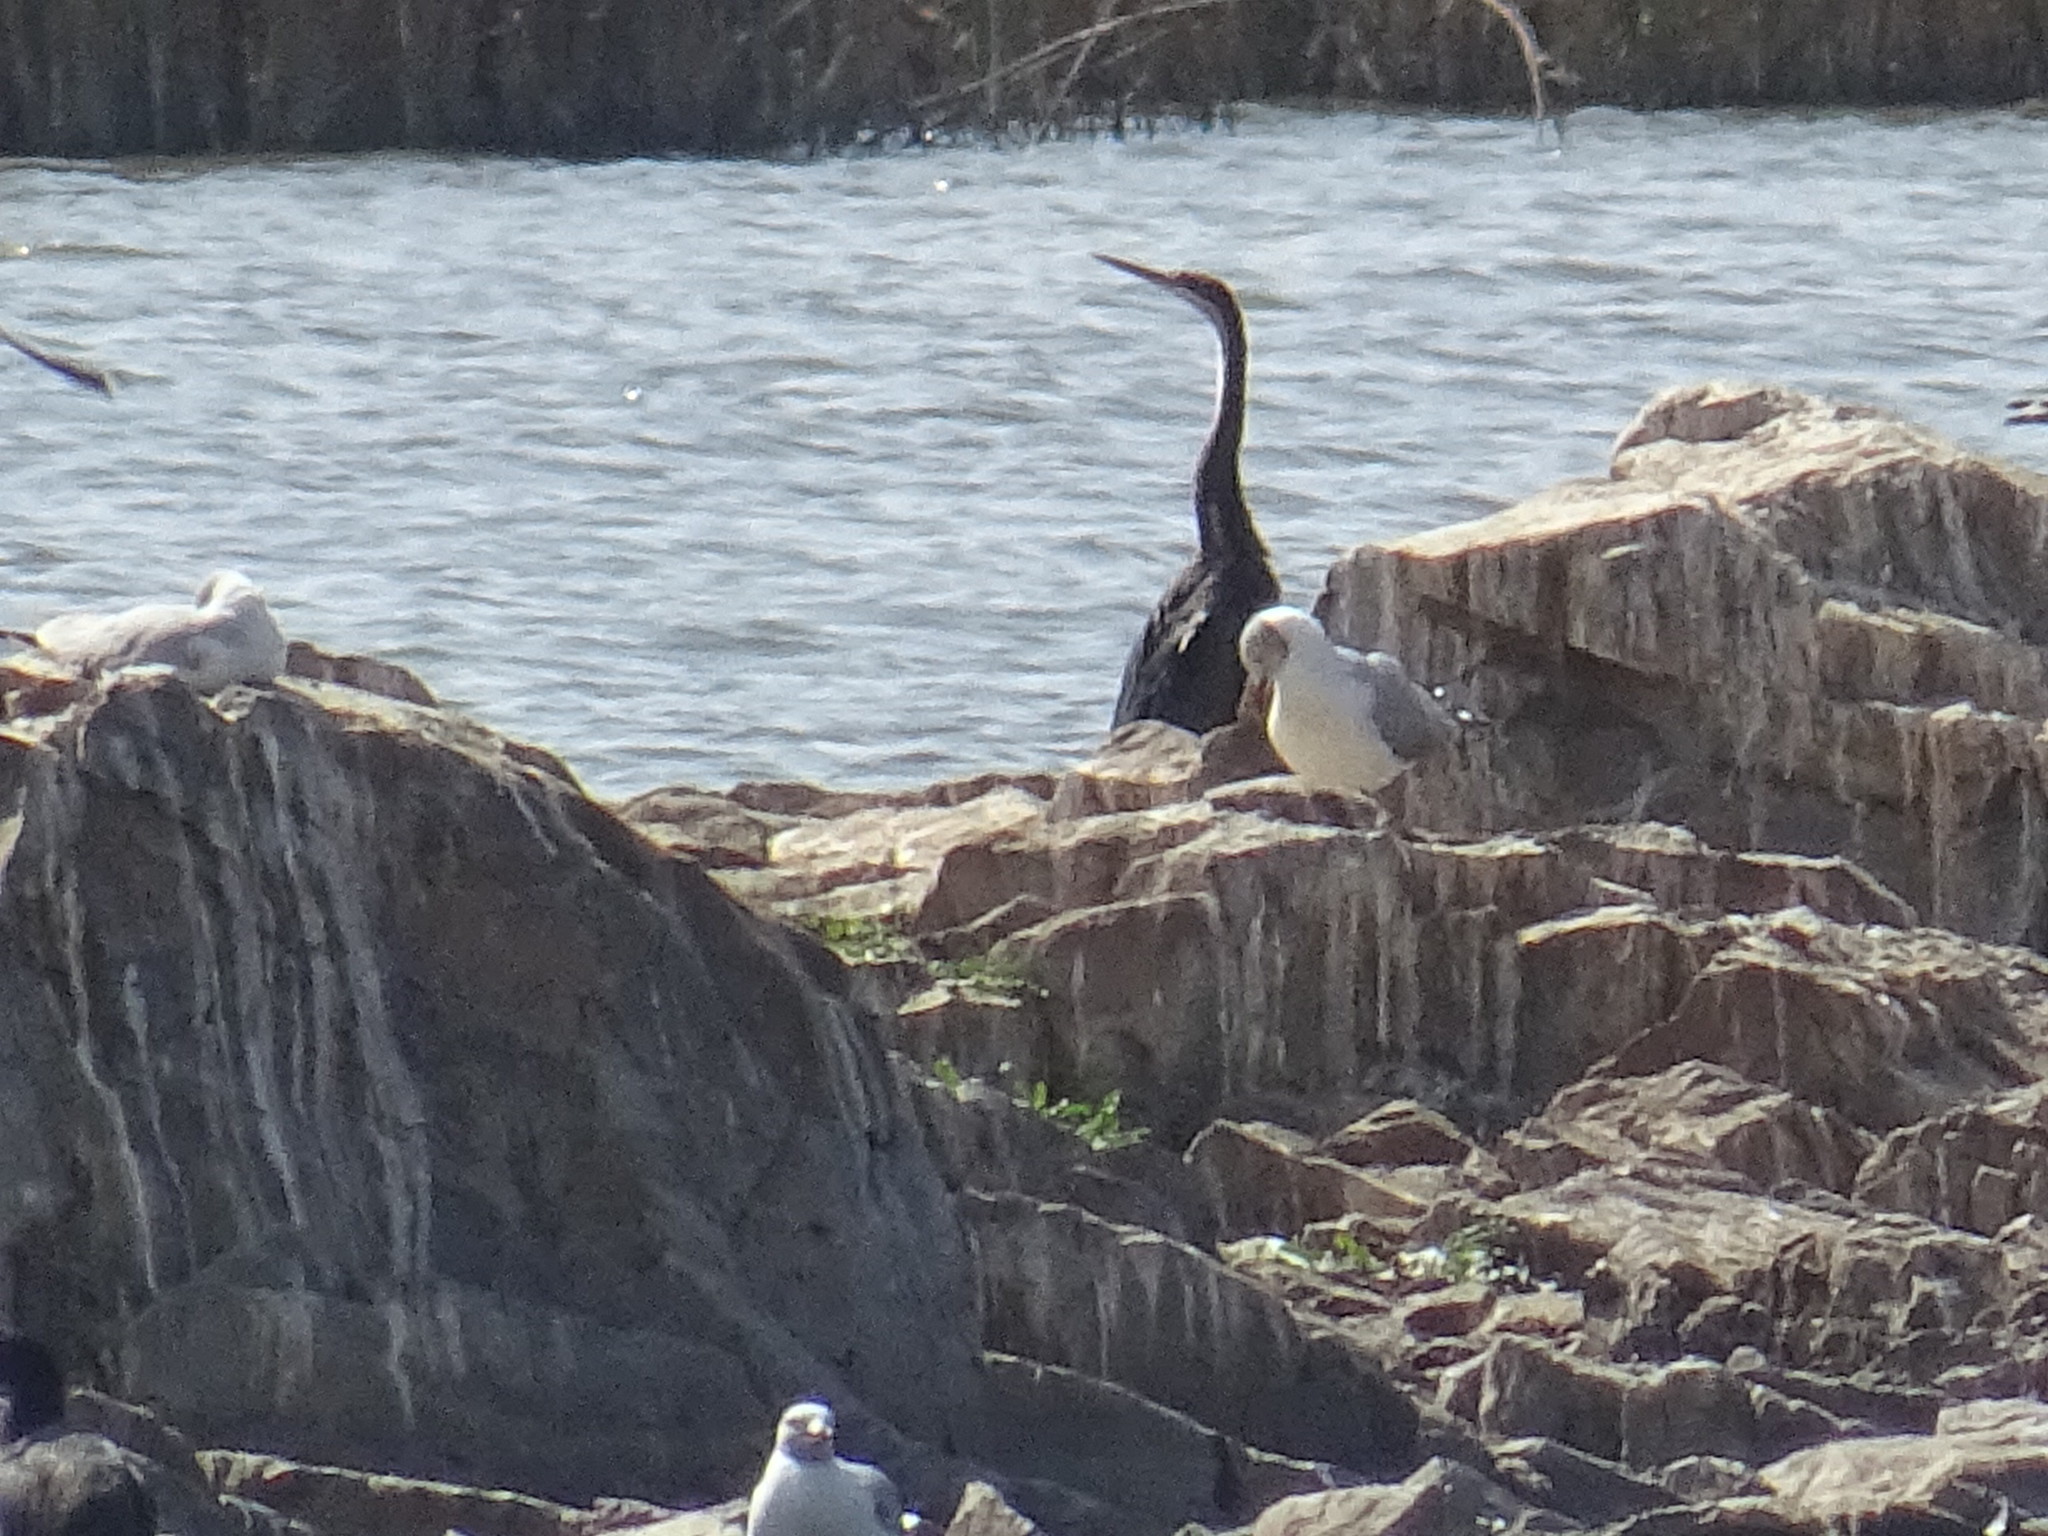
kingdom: Animalia
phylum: Chordata
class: Aves
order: Suliformes
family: Anhingidae
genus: Anhinga
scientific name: Anhinga rufa
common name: African darter
